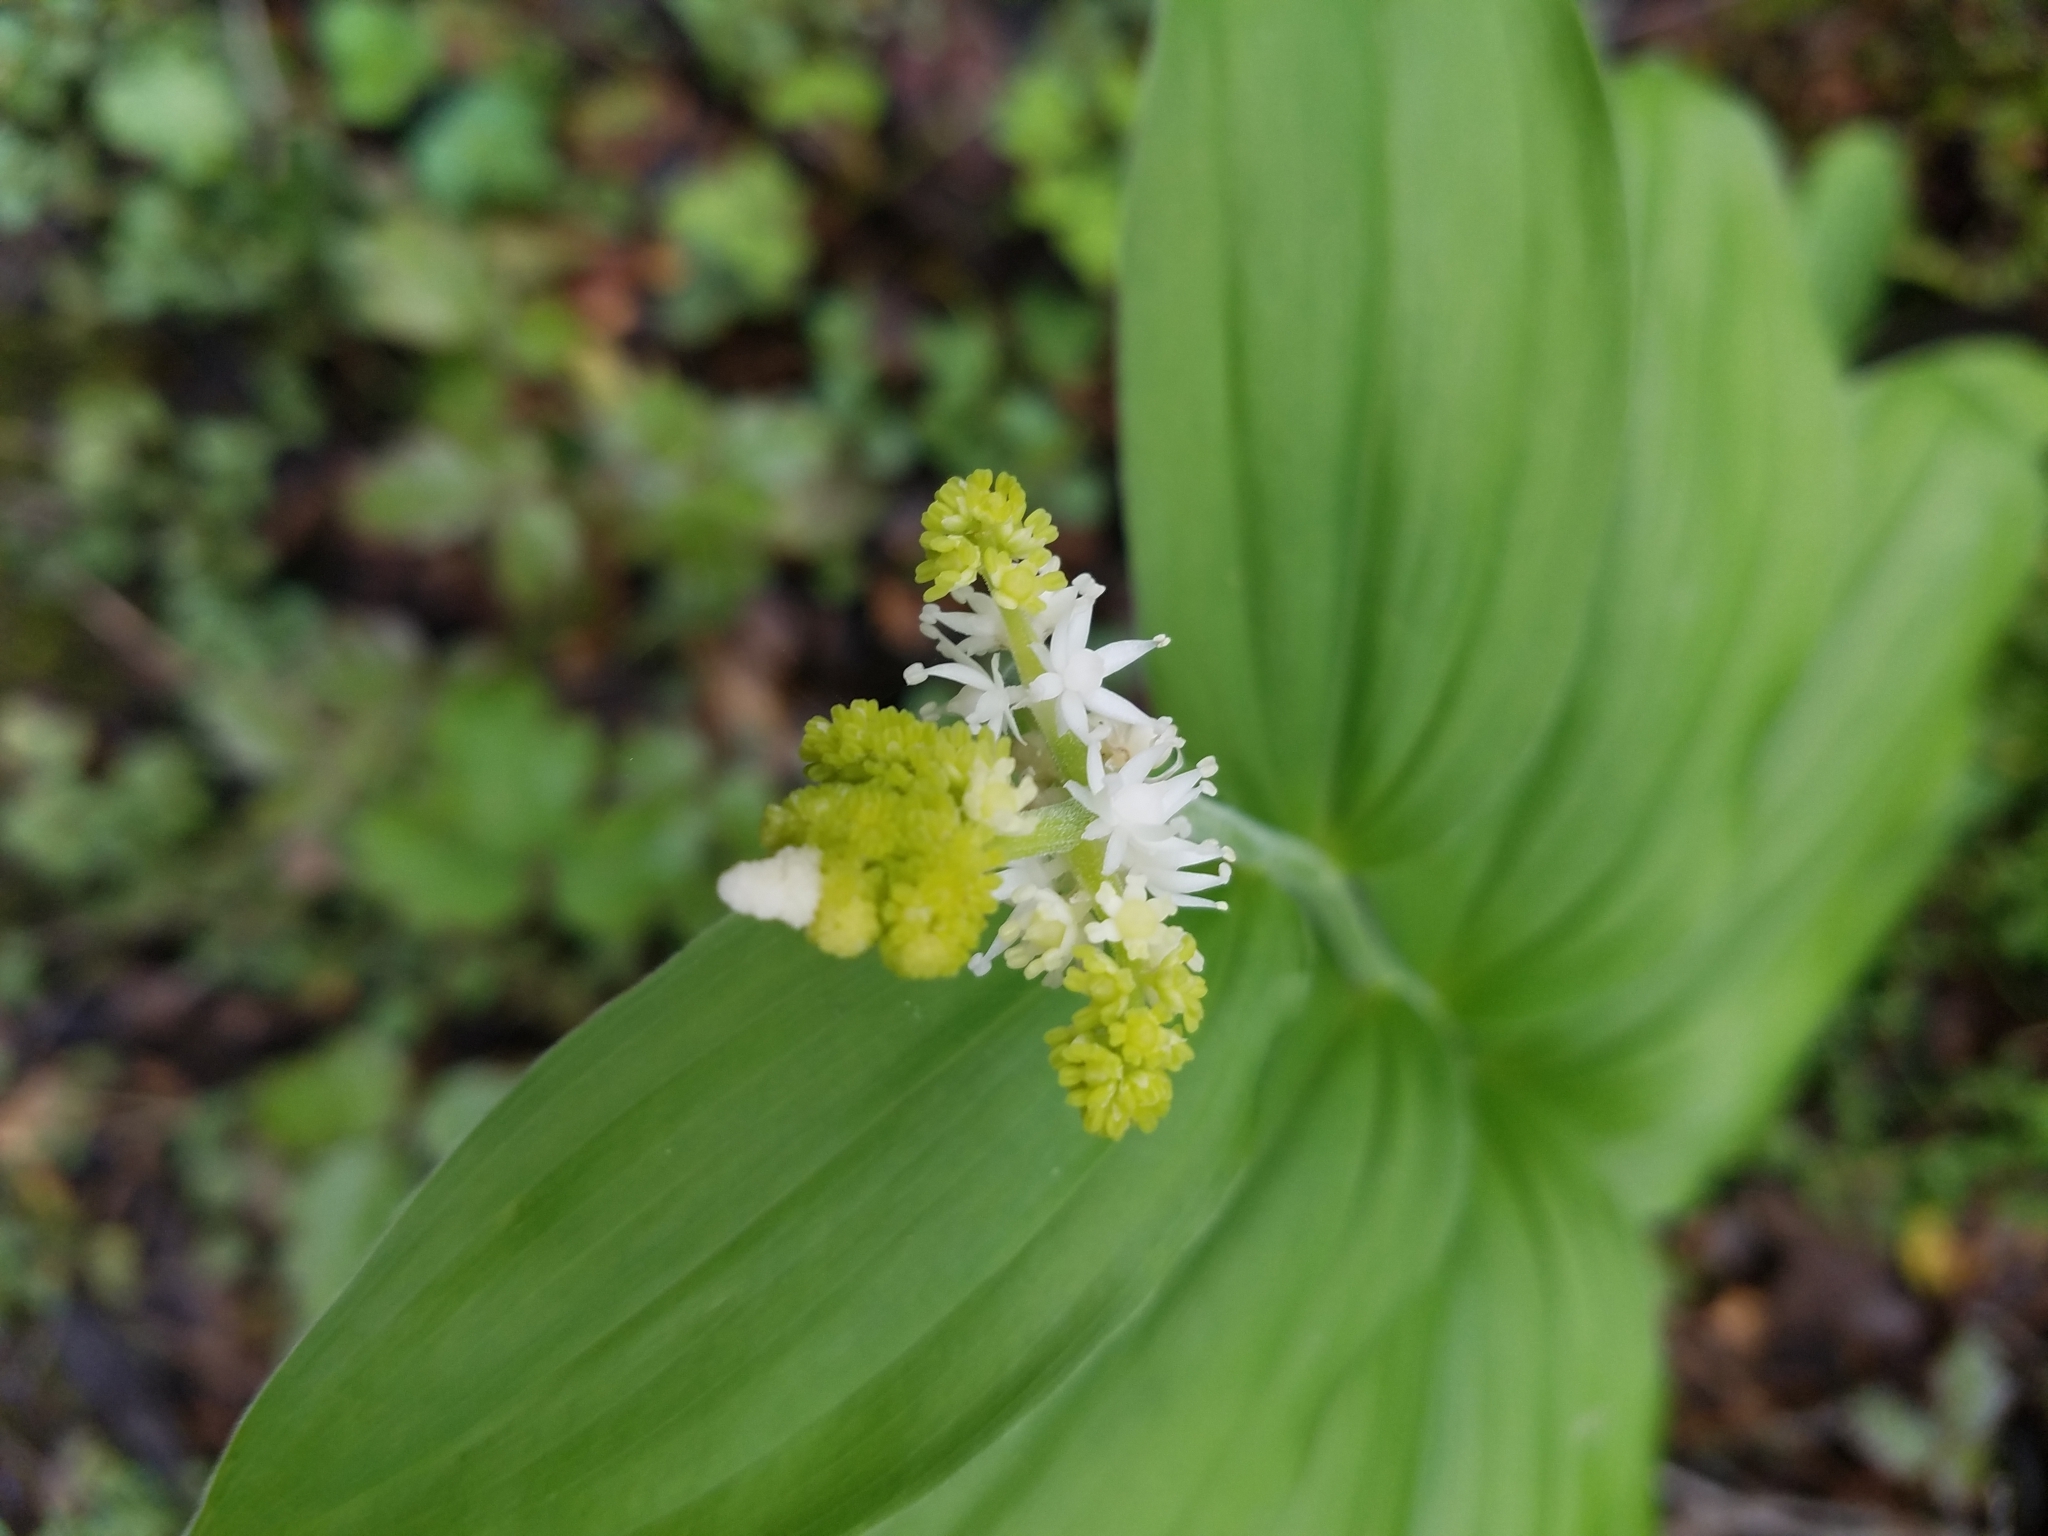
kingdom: Plantae
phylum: Tracheophyta
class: Liliopsida
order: Asparagales
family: Asparagaceae
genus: Maianthemum
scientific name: Maianthemum racemosum
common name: False spikenard
